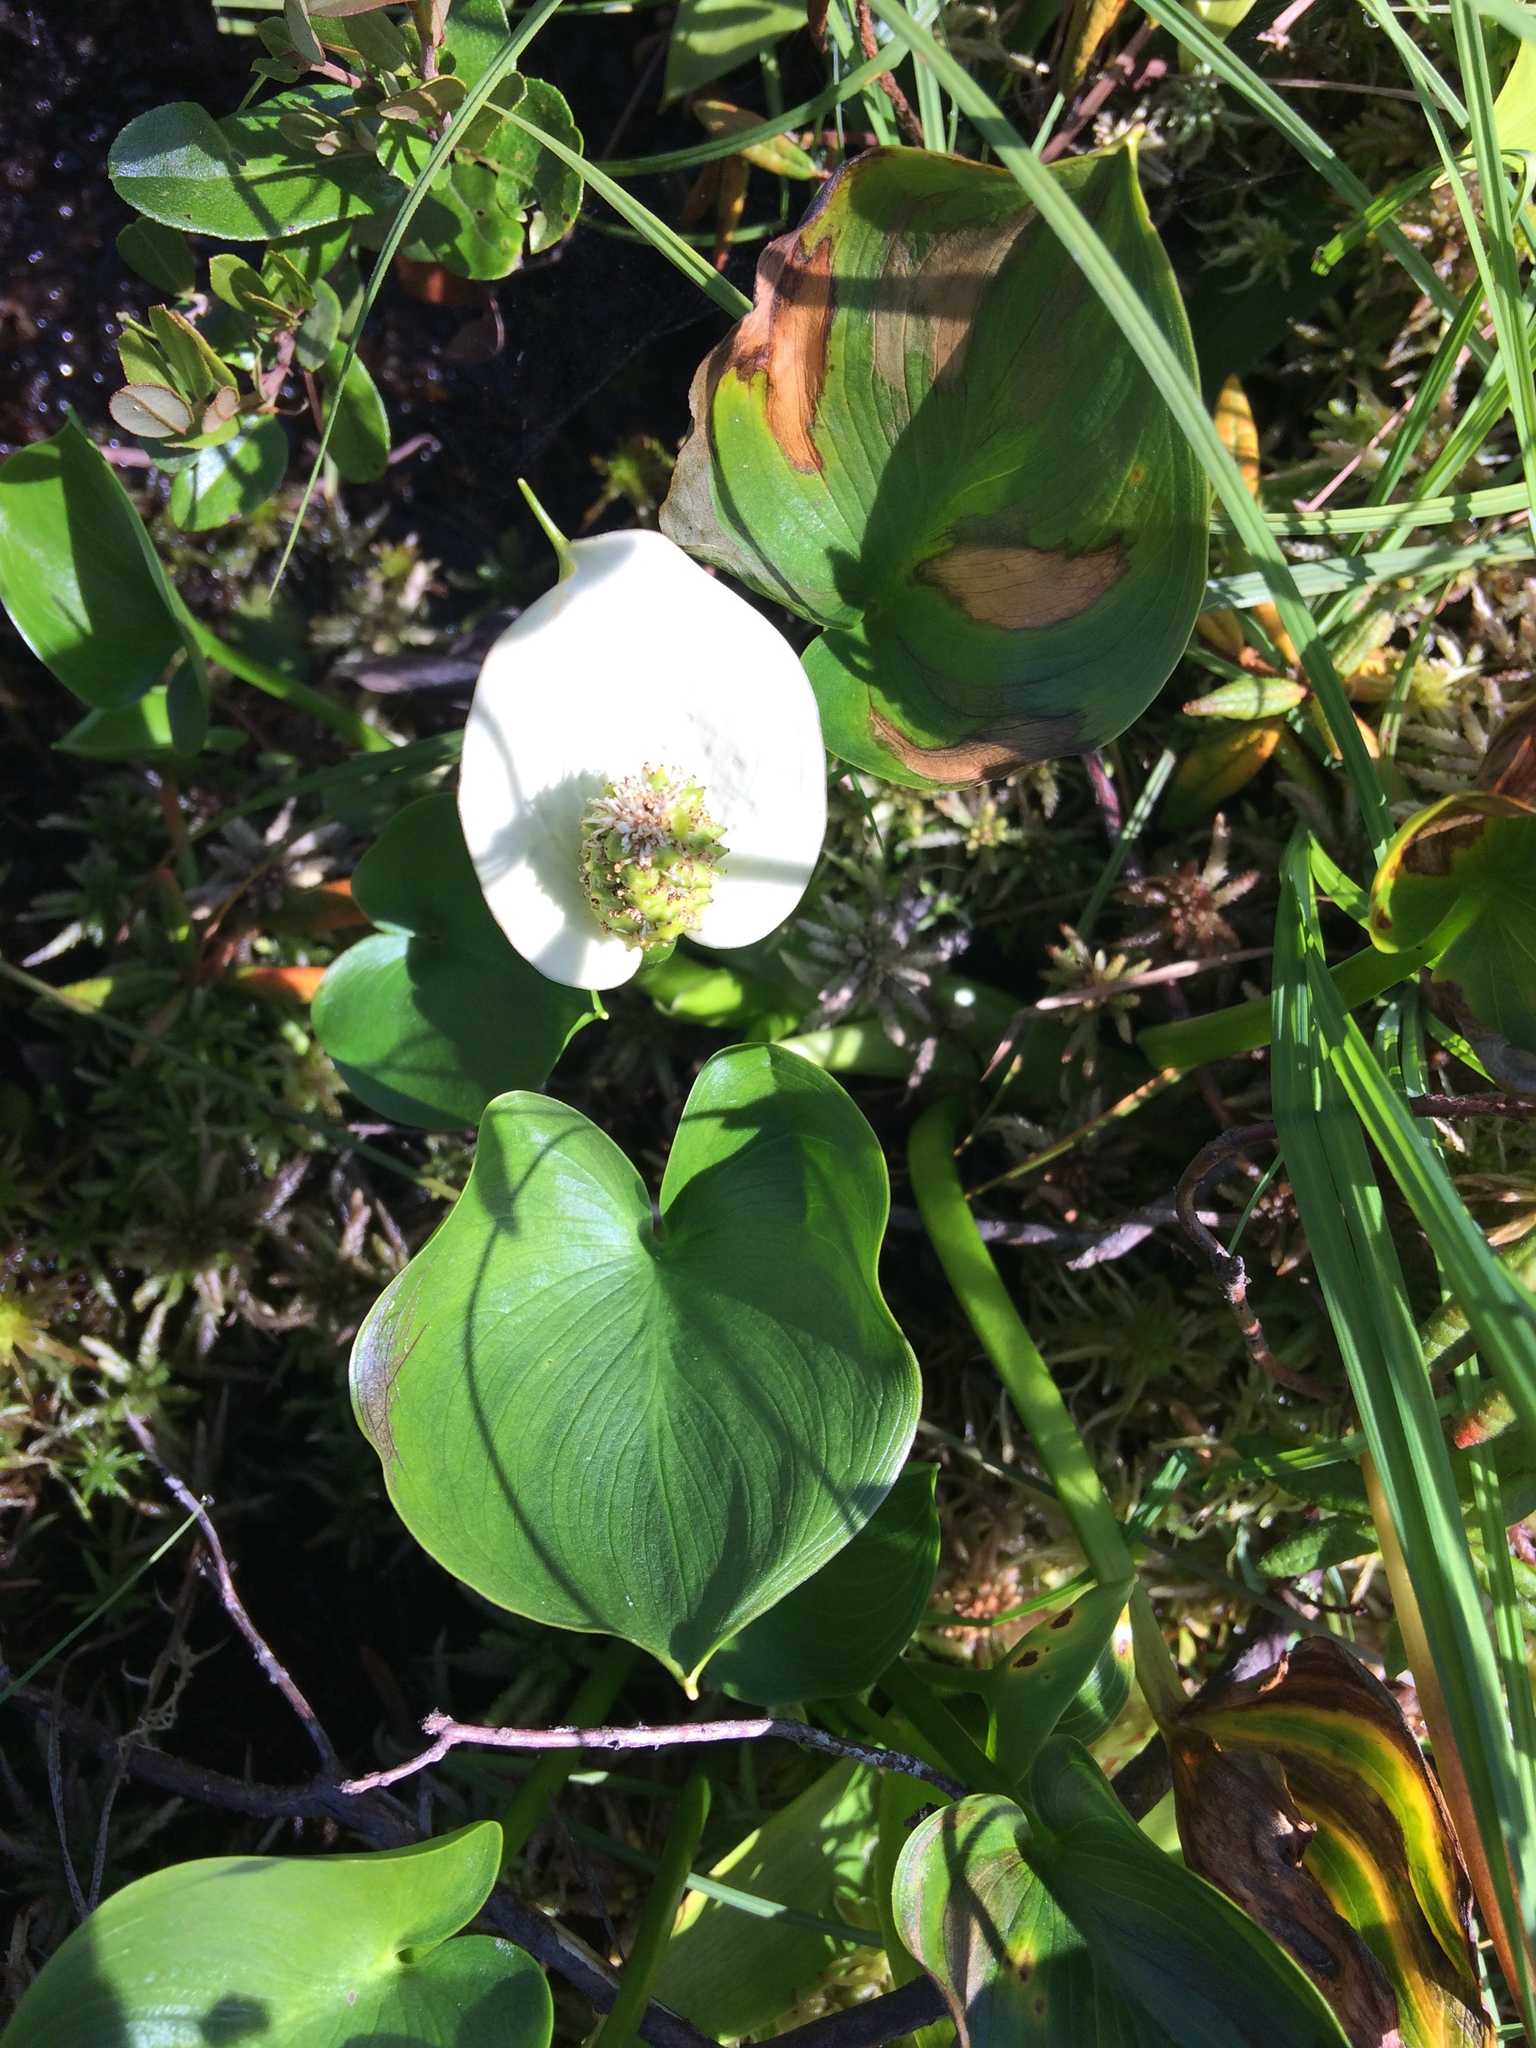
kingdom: Plantae
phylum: Tracheophyta
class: Liliopsida
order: Alismatales
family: Araceae
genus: Calla
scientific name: Calla palustris
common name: Bog arum
